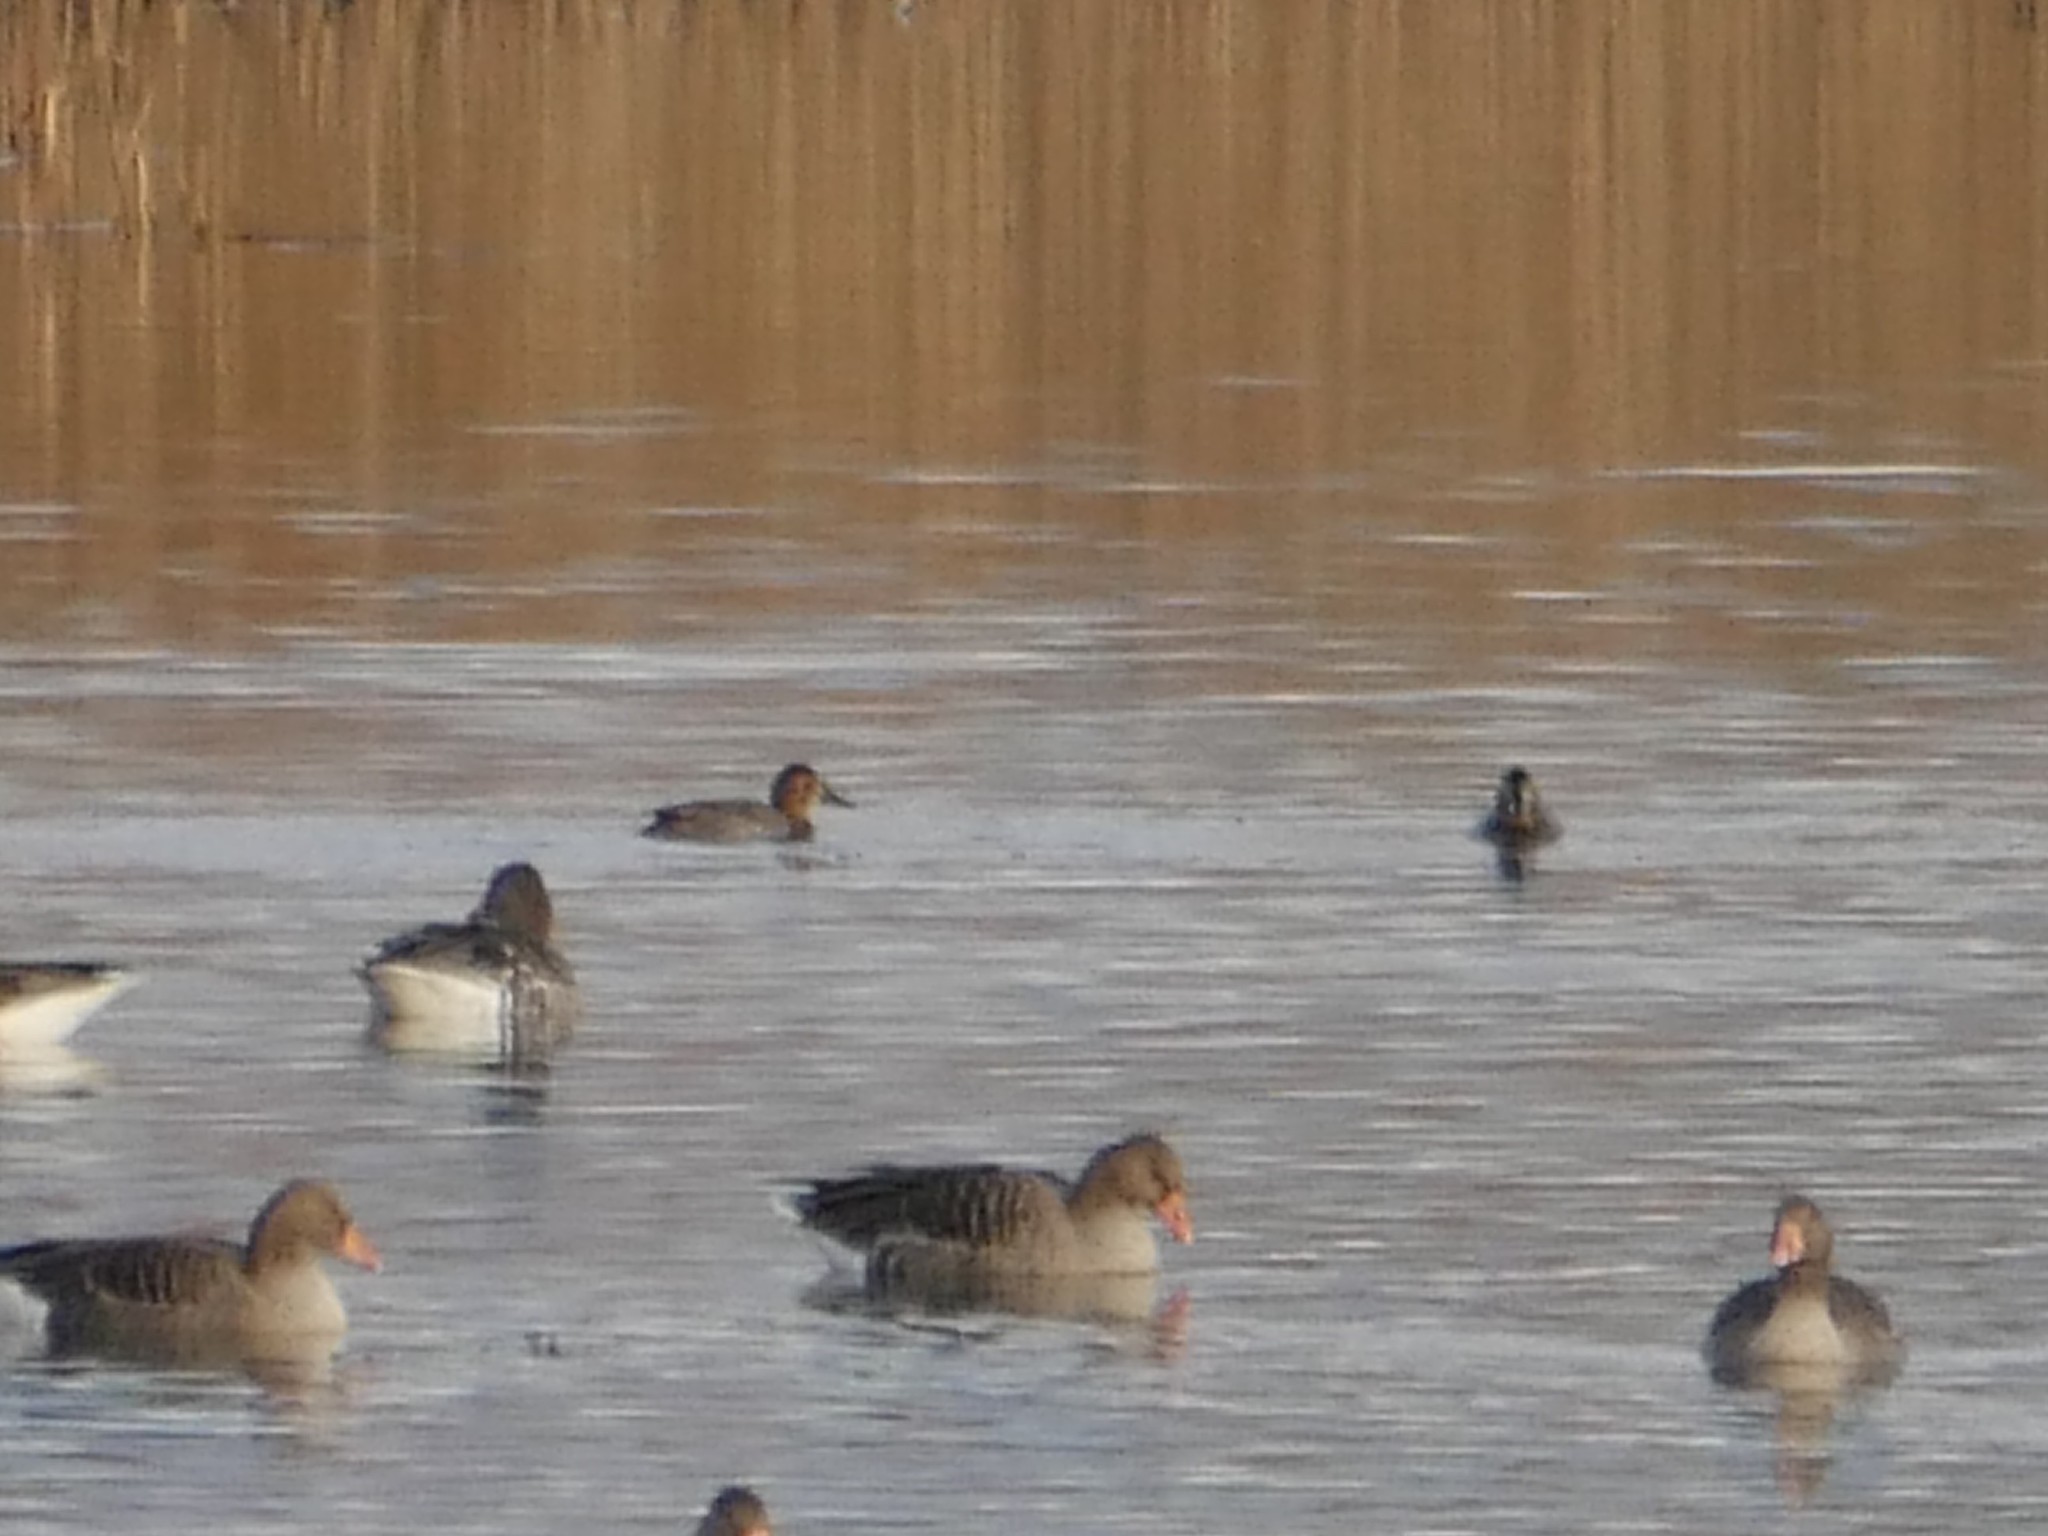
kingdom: Animalia
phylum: Chordata
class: Aves
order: Anseriformes
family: Anatidae
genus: Aythya
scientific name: Aythya ferina
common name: Common pochard
